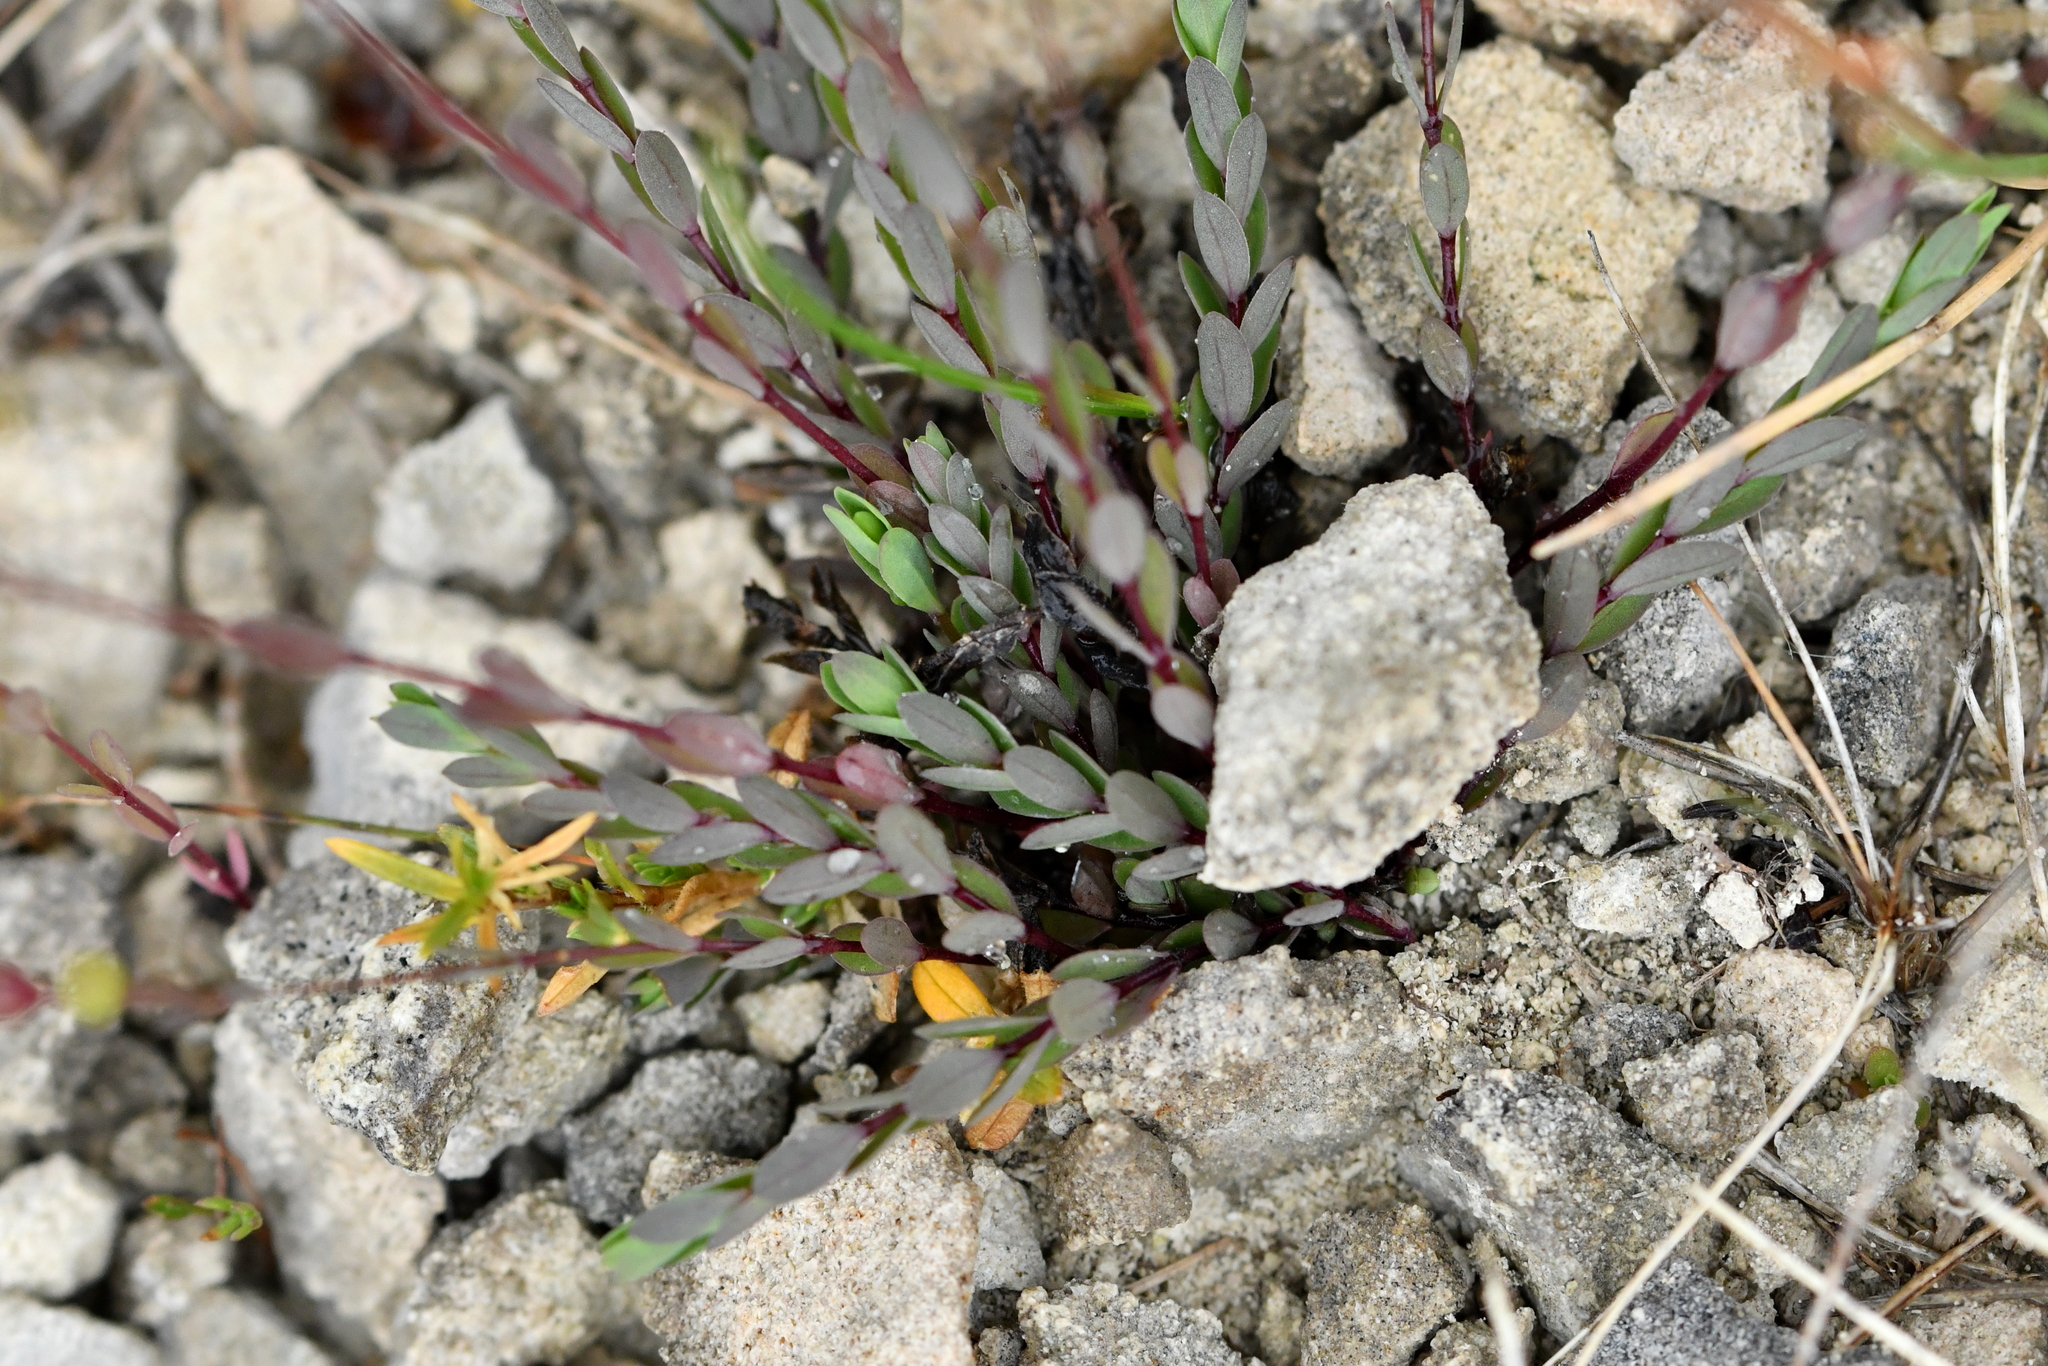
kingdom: Plantae
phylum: Tracheophyta
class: Magnoliopsida
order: Malpighiales
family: Linaceae
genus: Linum
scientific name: Linum catharticum
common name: Fairy flax
